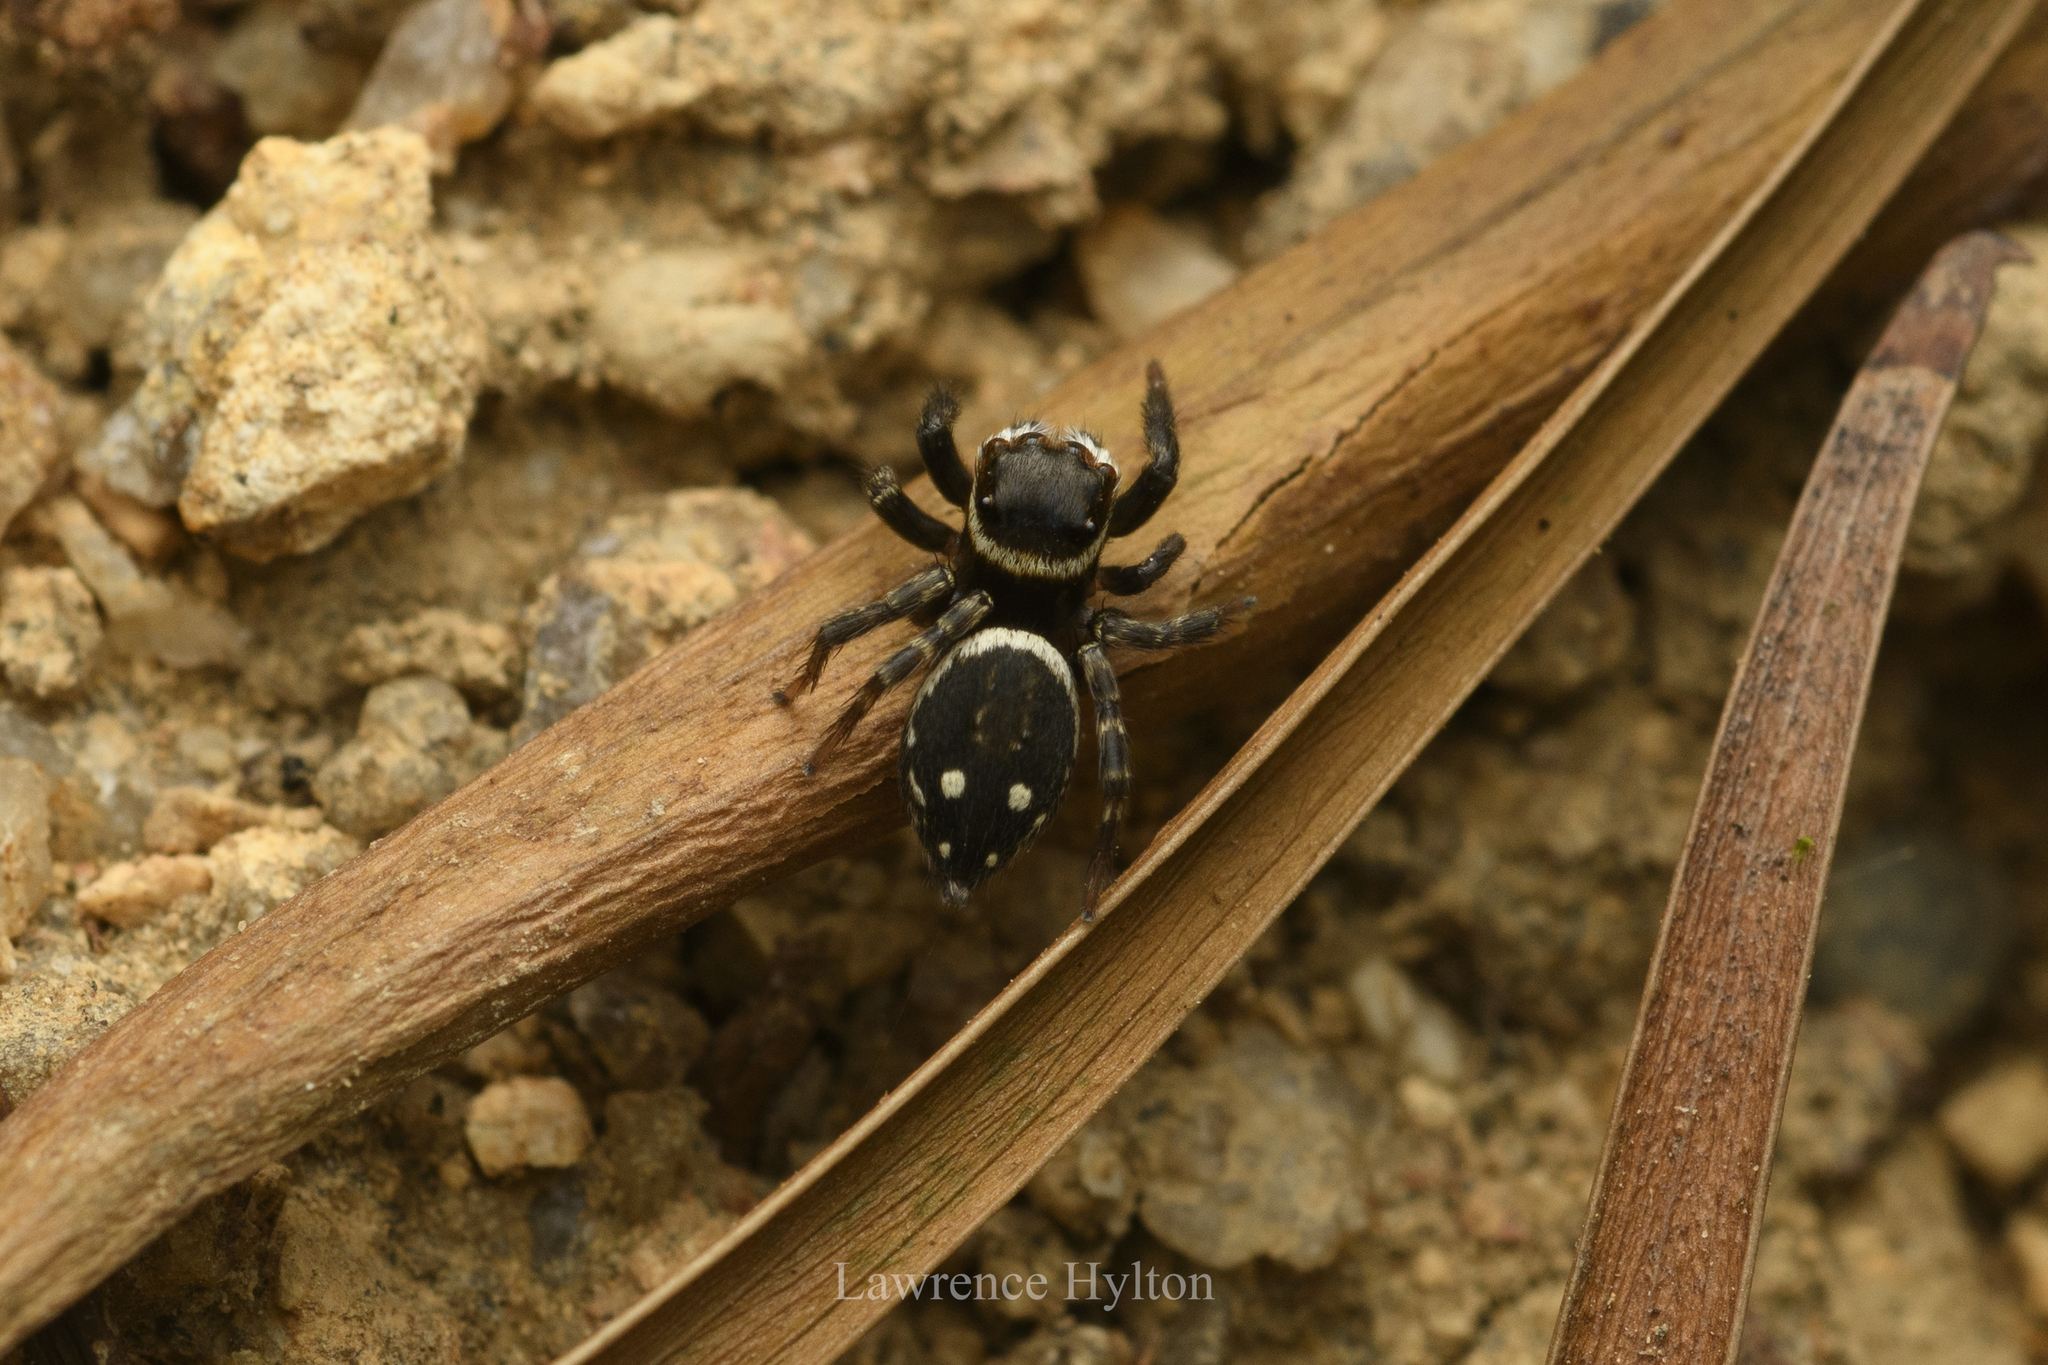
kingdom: Animalia
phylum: Arthropoda
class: Arachnida
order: Araneae
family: Salticidae
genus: Hasarius
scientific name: Hasarius adansoni
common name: Jumping spider
